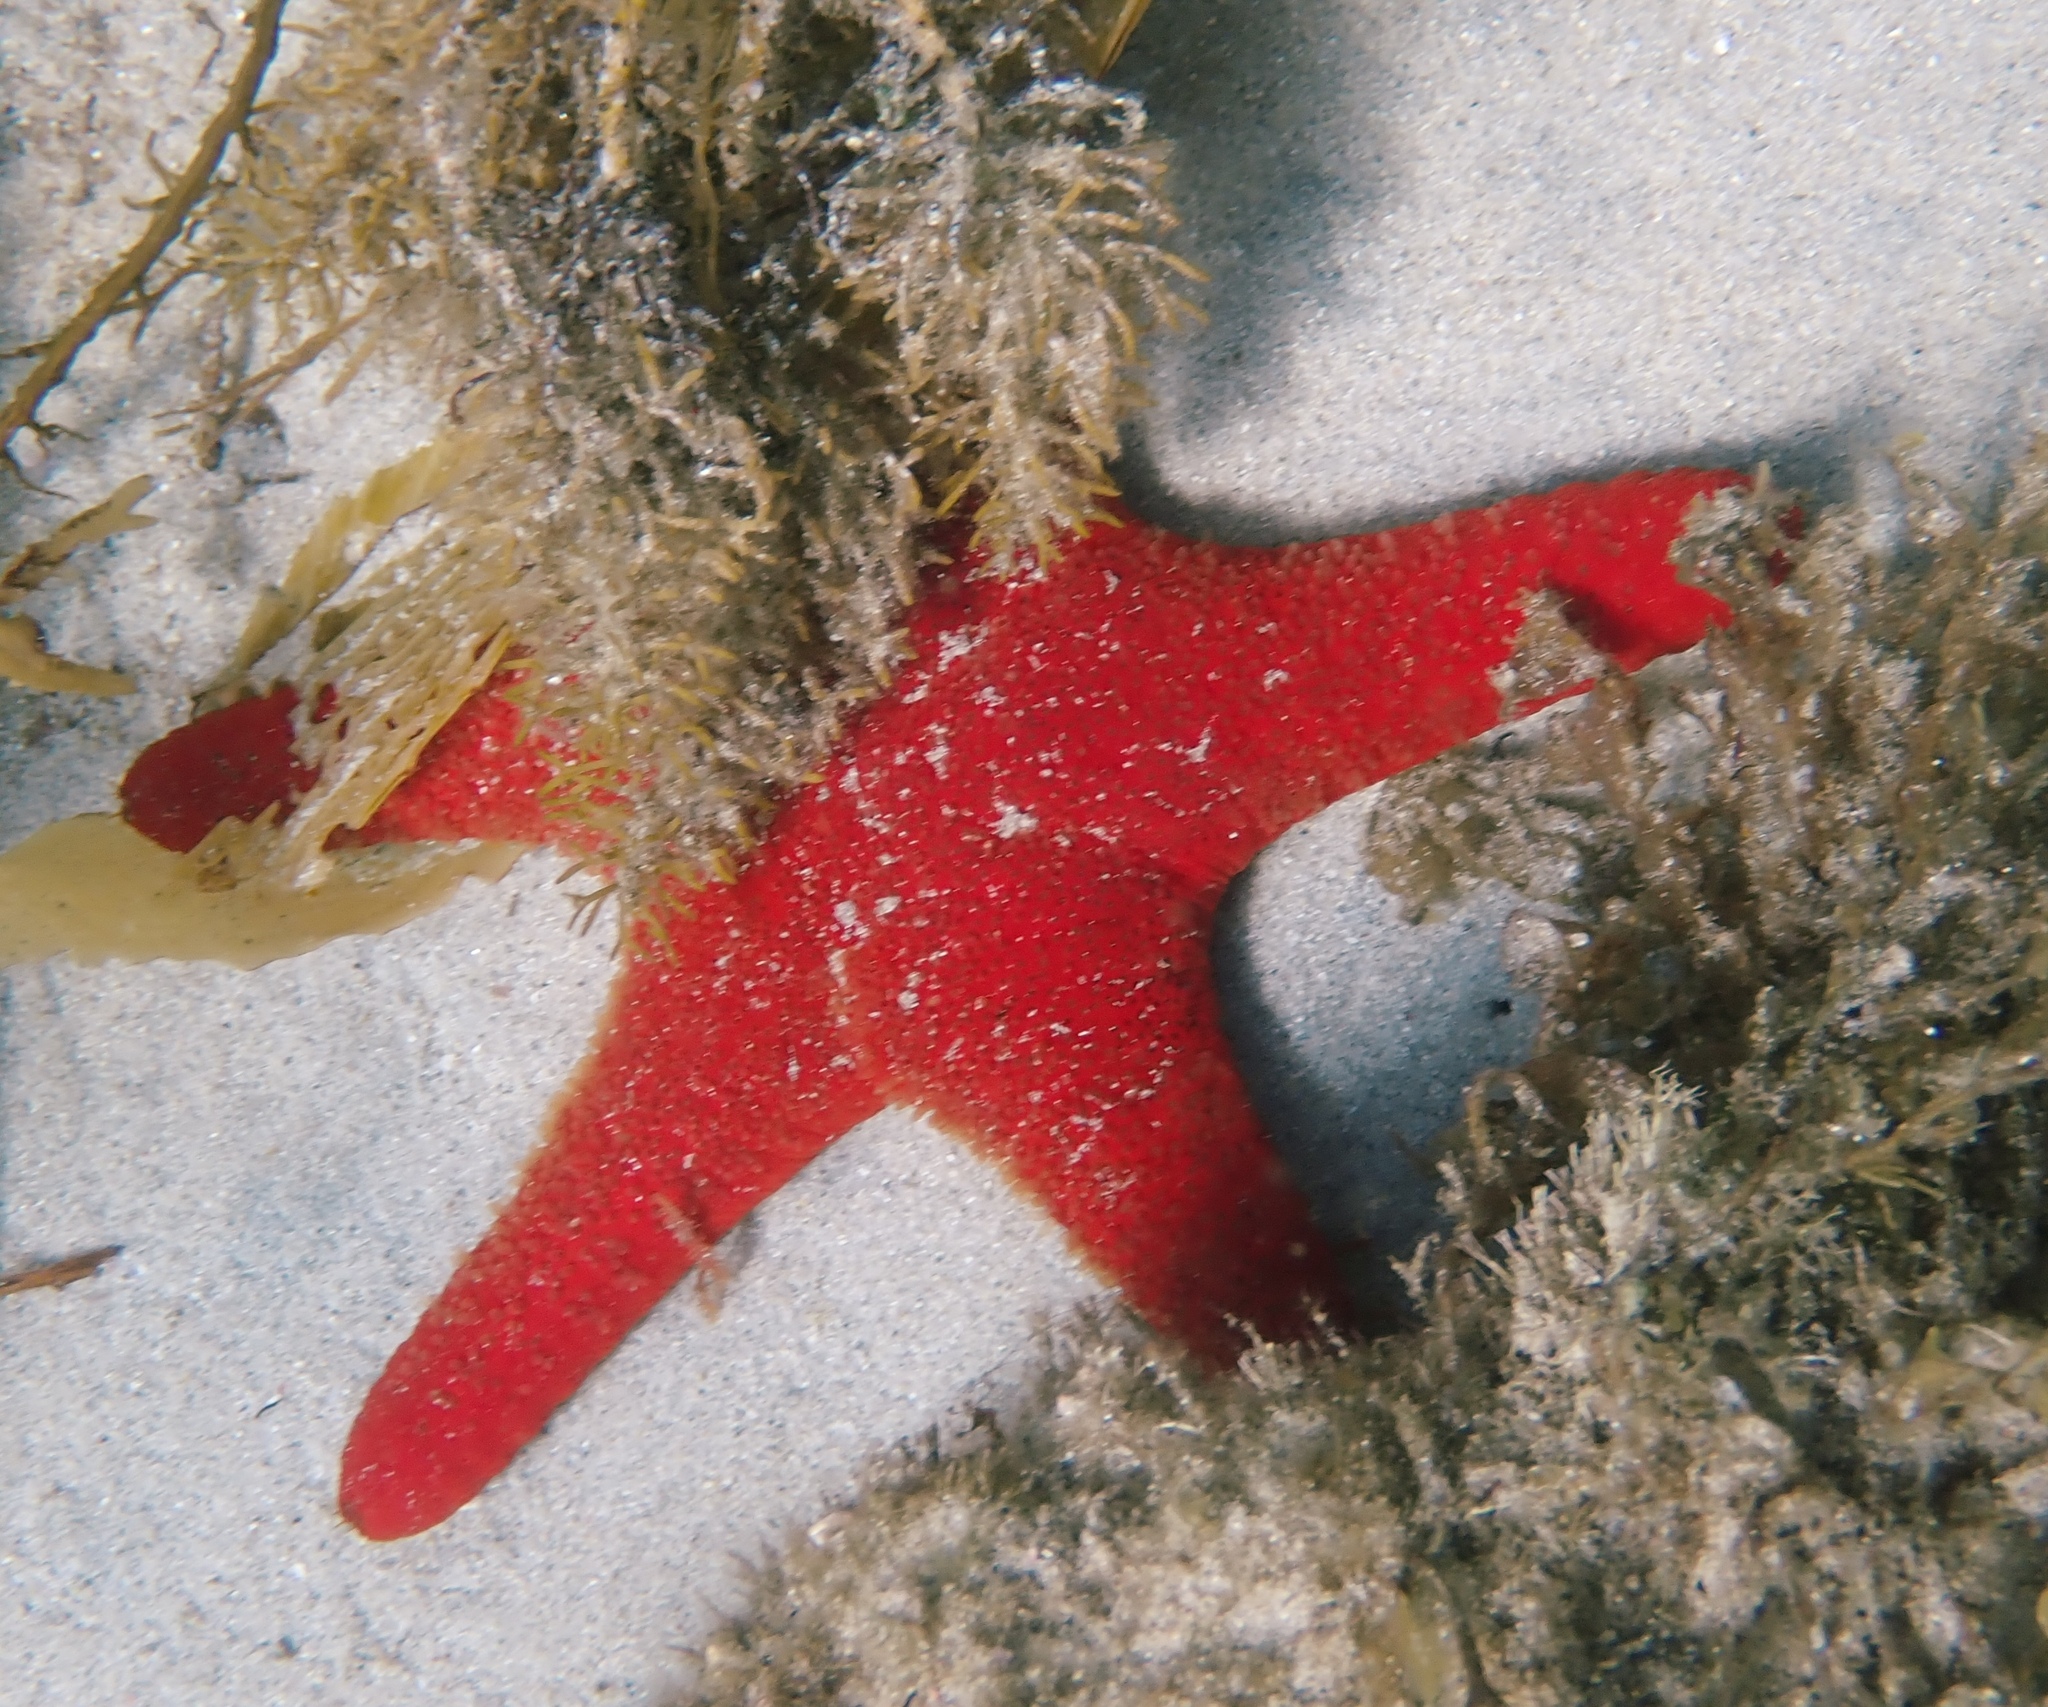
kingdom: Animalia
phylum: Echinodermata
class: Asteroidea
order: Valvatida
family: Asteropseidae
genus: Petricia
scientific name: Petricia vernicina
